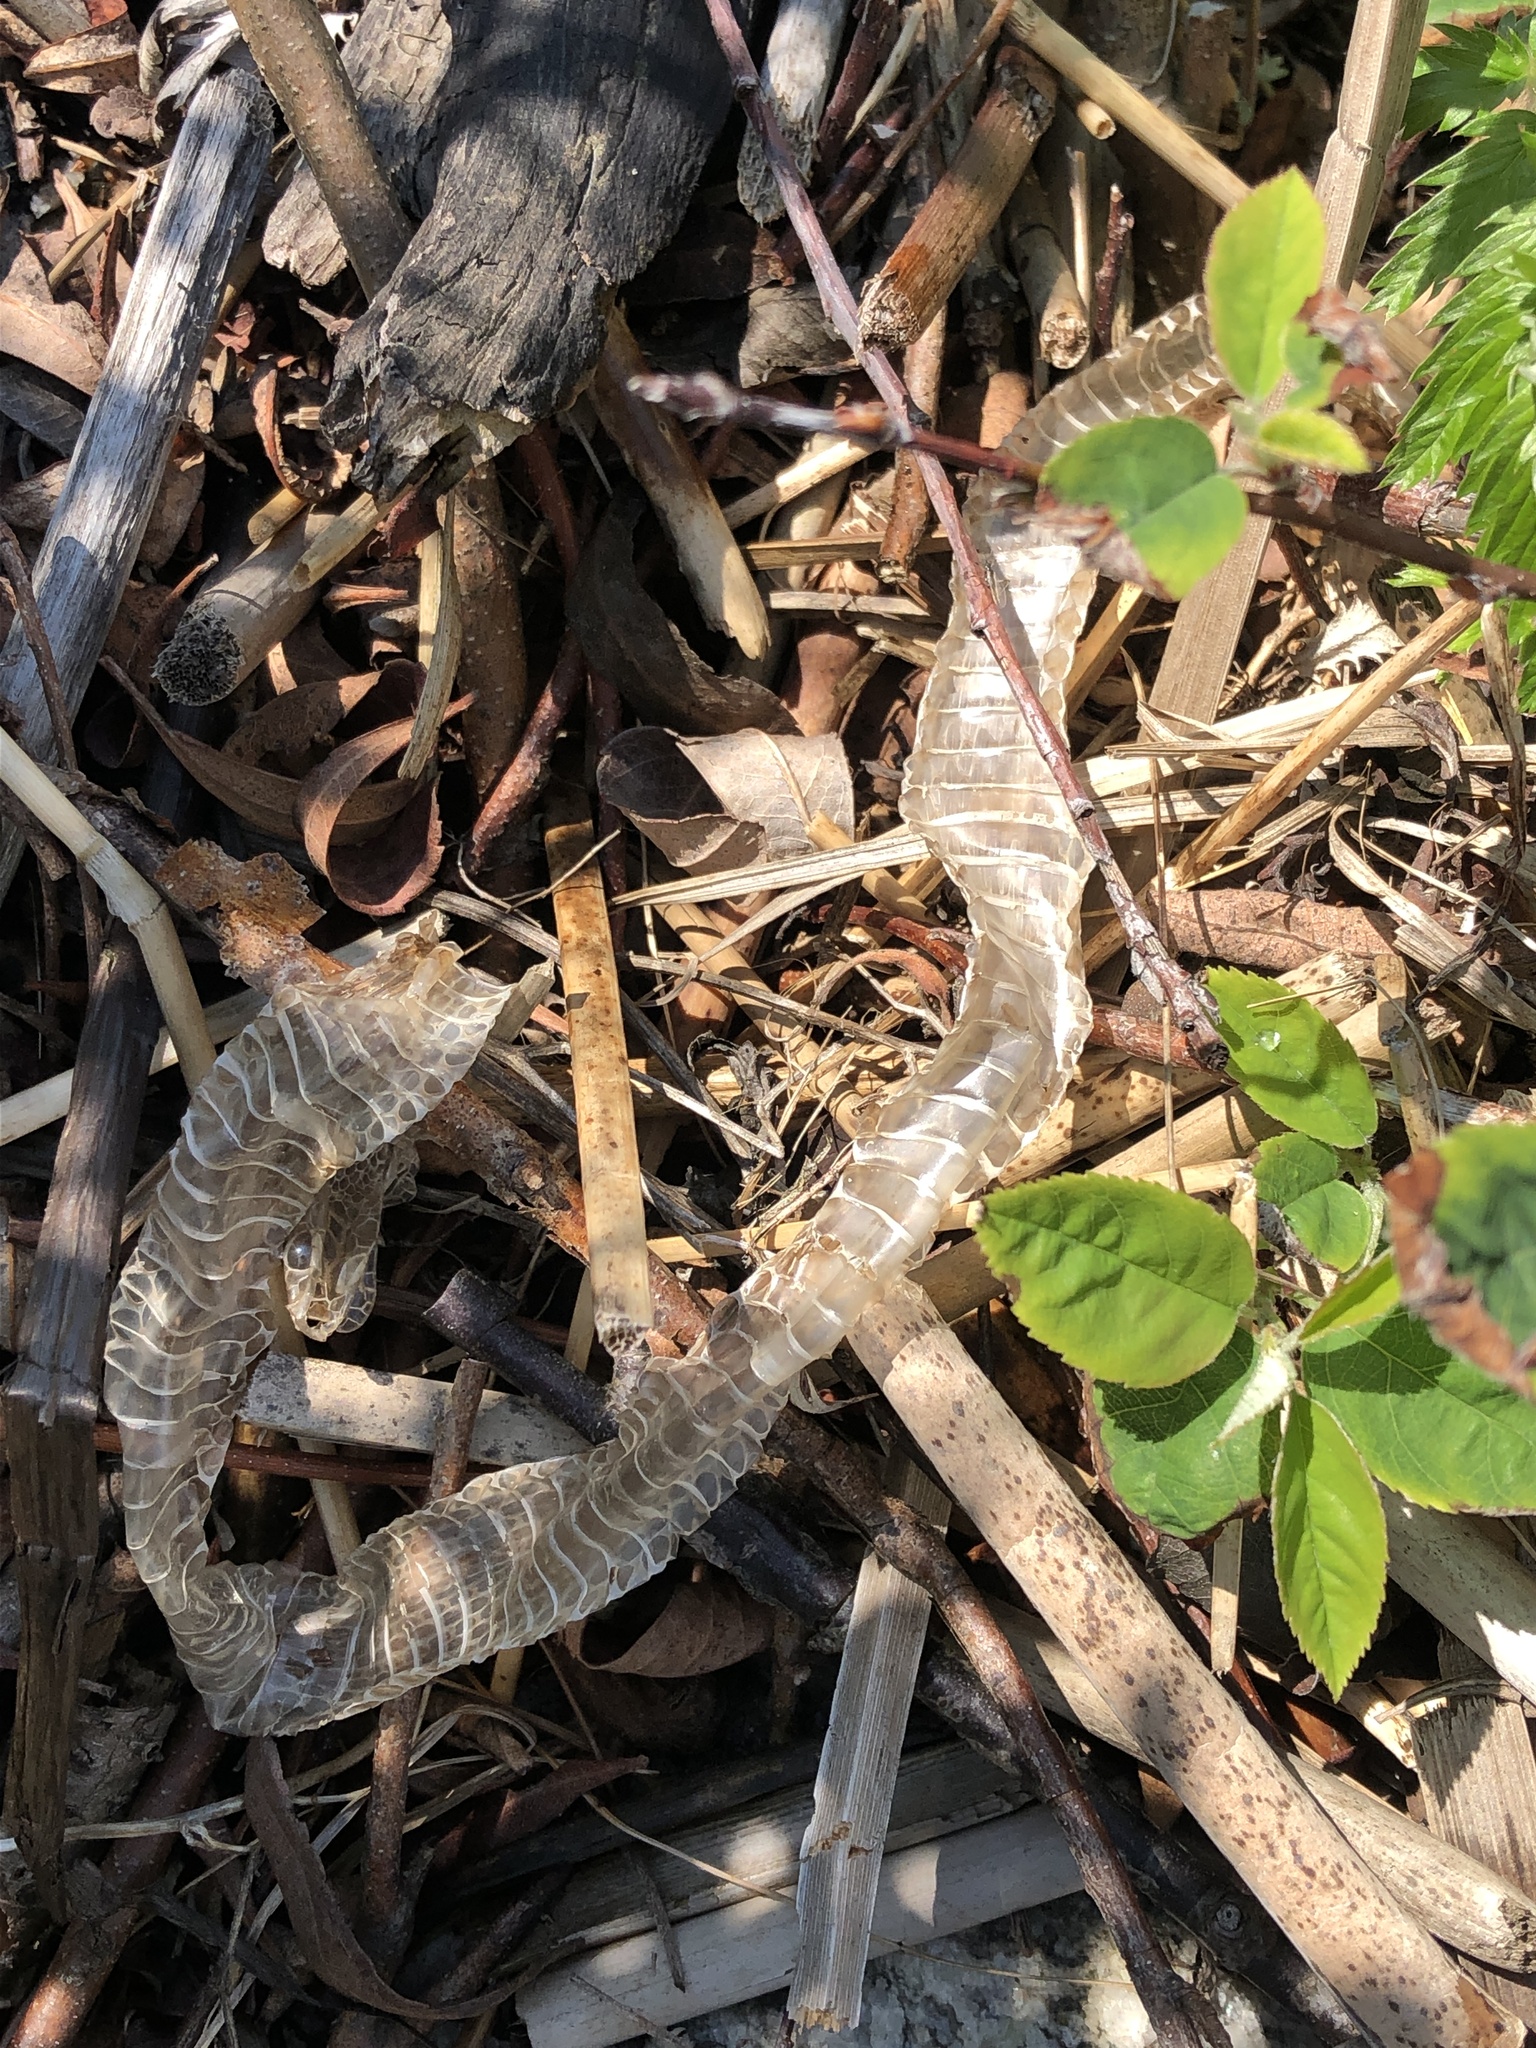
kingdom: Animalia
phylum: Chordata
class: Squamata
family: Colubridae
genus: Thamnophis
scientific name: Thamnophis sirtalis
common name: Common garter snake
